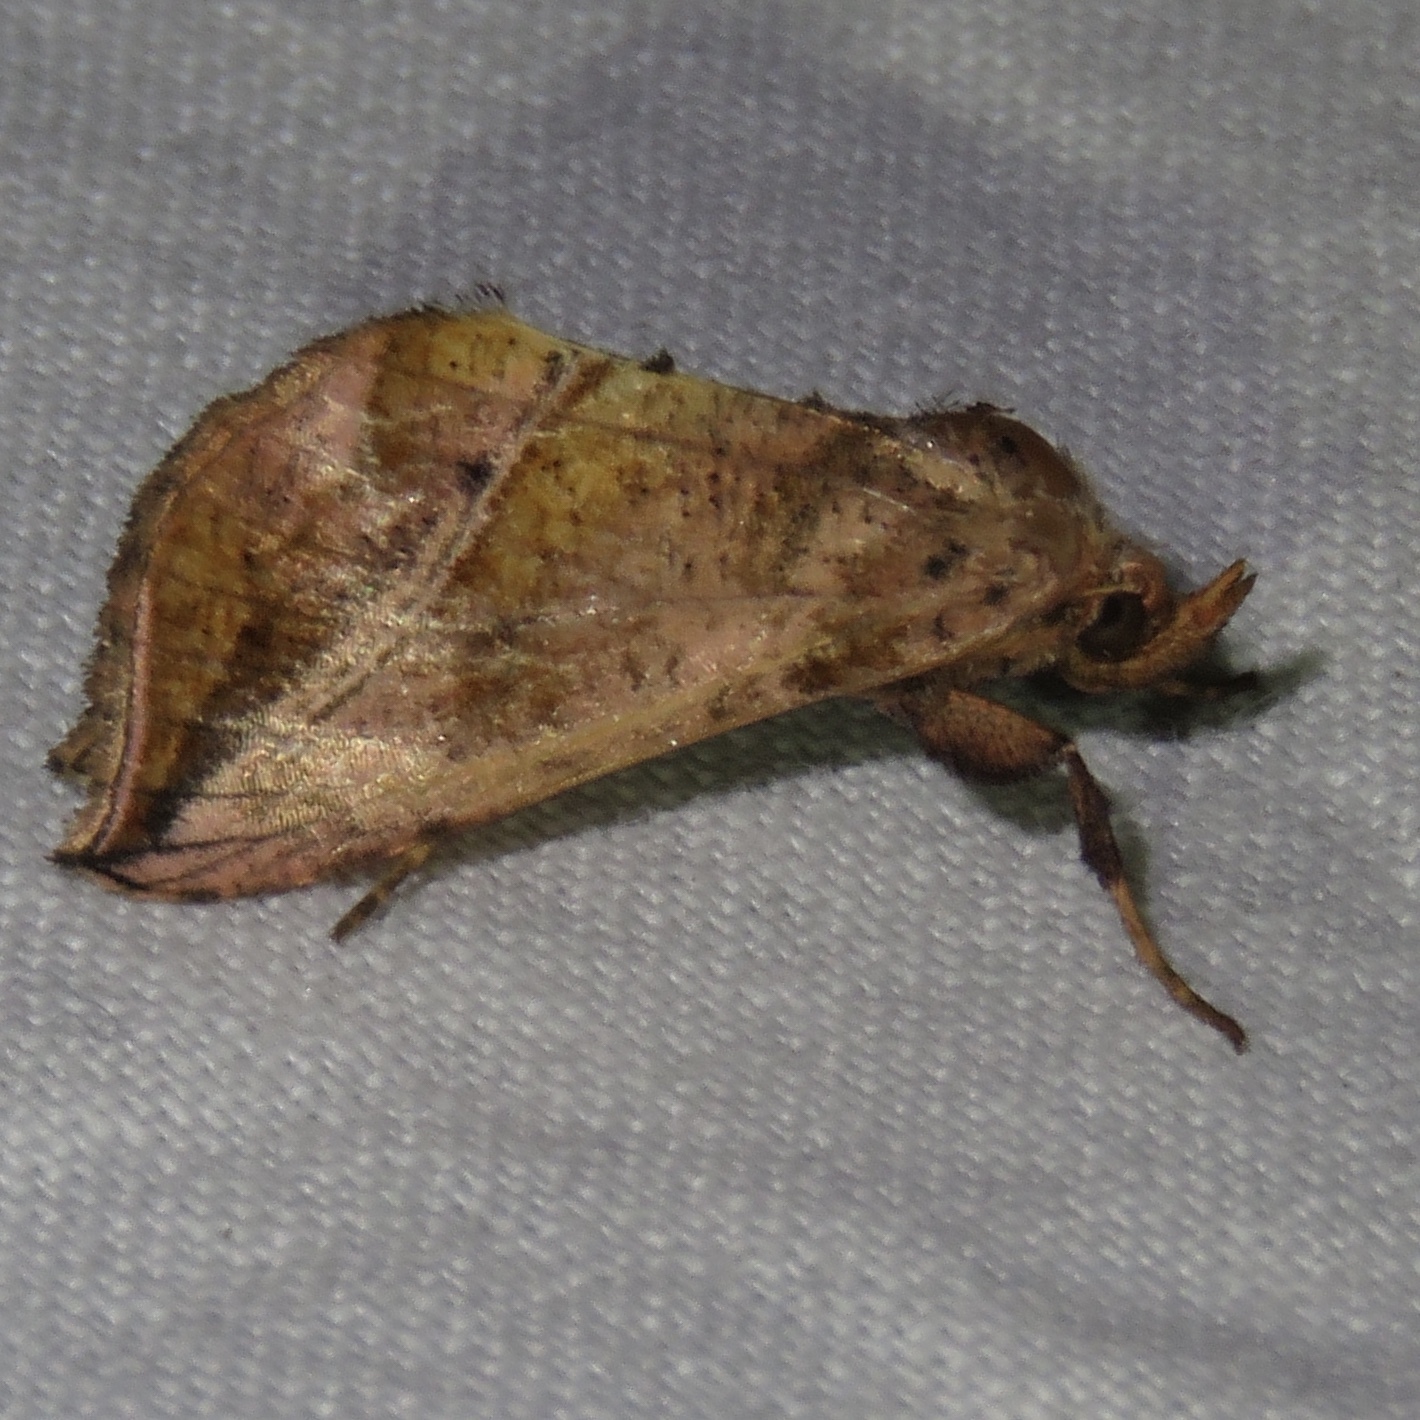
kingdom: Animalia
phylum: Arthropoda
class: Insecta
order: Lepidoptera
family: Noctuidae
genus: Pseudeva
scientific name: Pseudeva purpurigera
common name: Straight-lined looper moth
